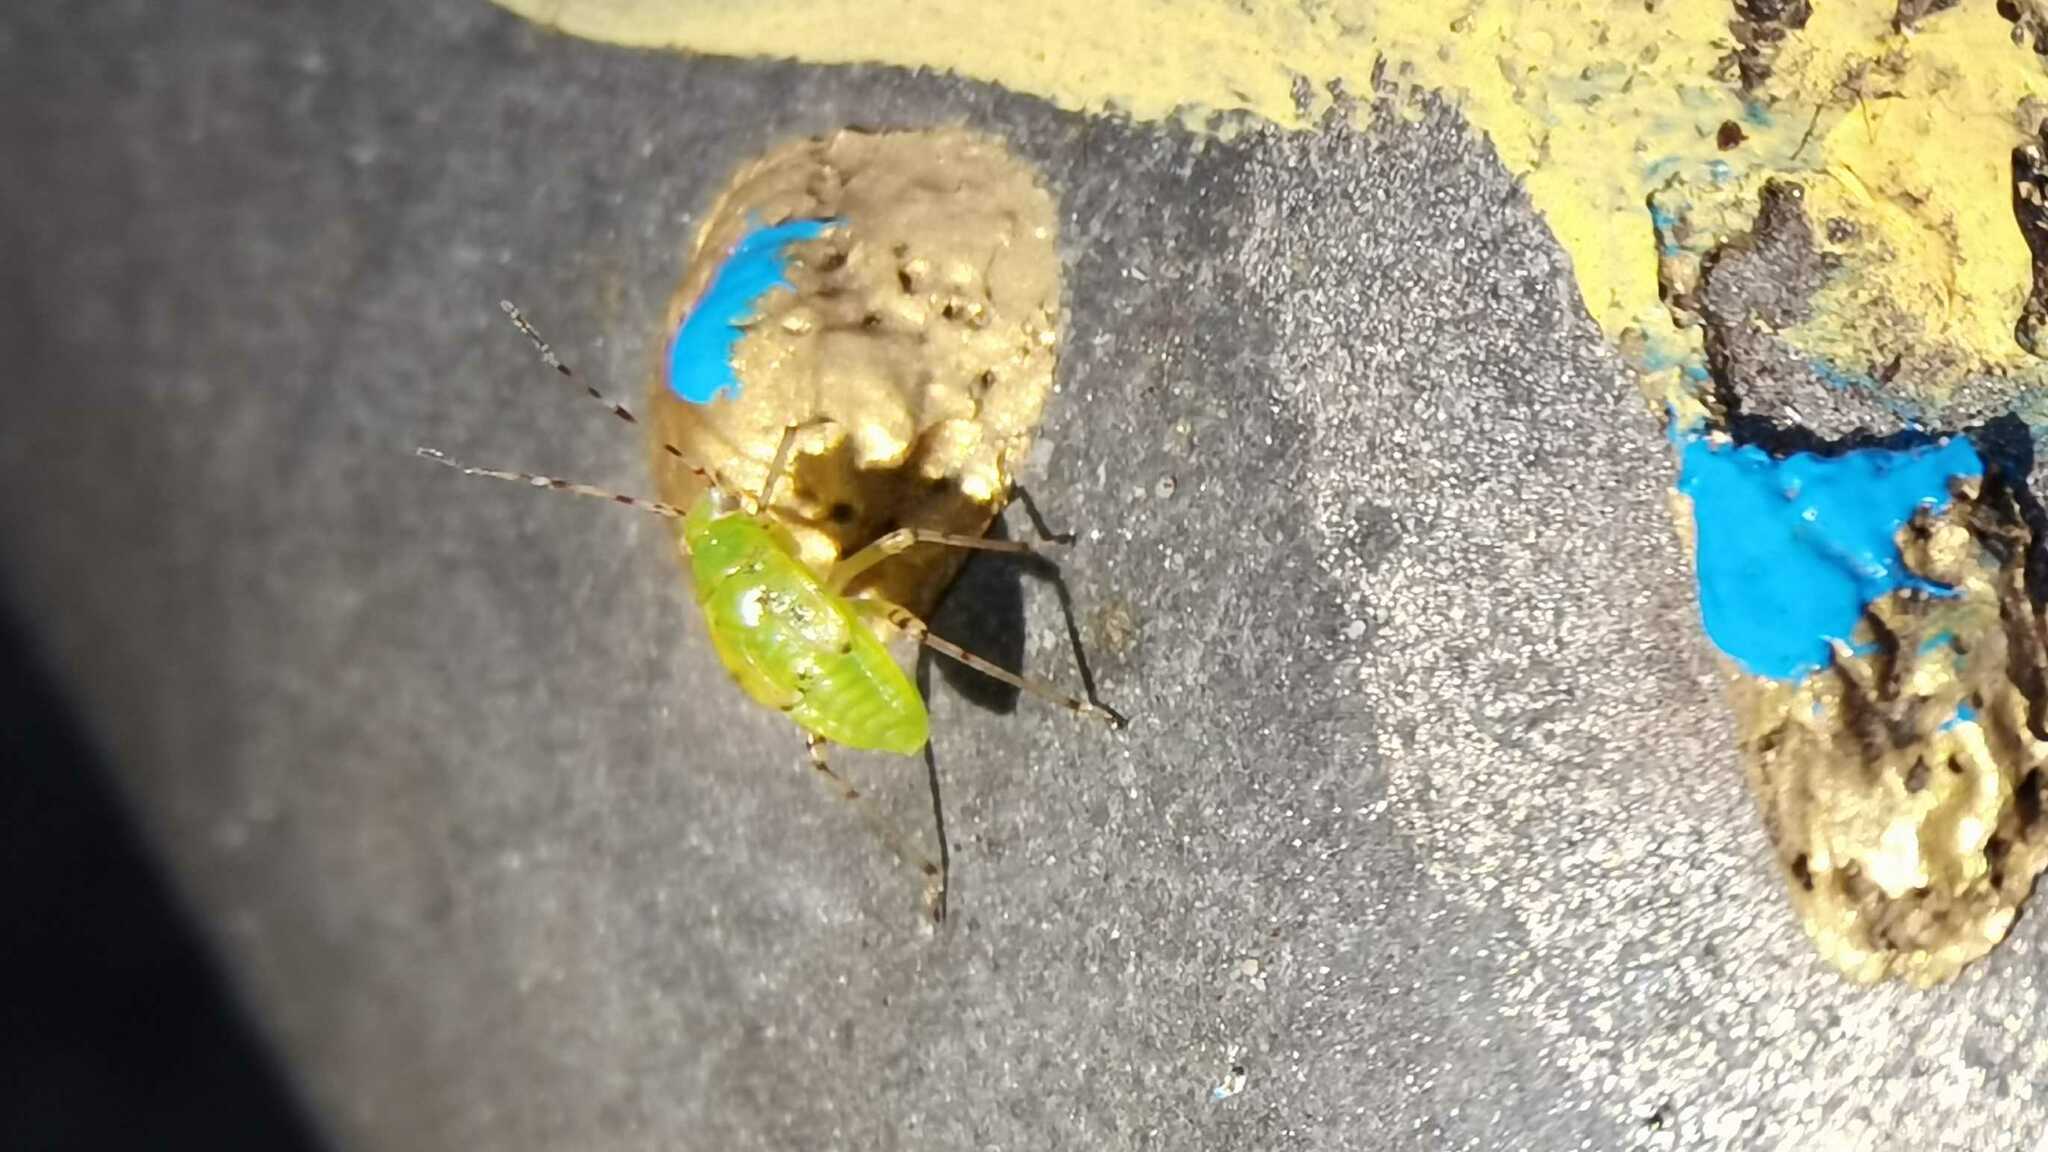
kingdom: Animalia
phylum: Arthropoda
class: Insecta
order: Hemiptera
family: Miridae
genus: Liocoris
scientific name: Liocoris tripustulatus
